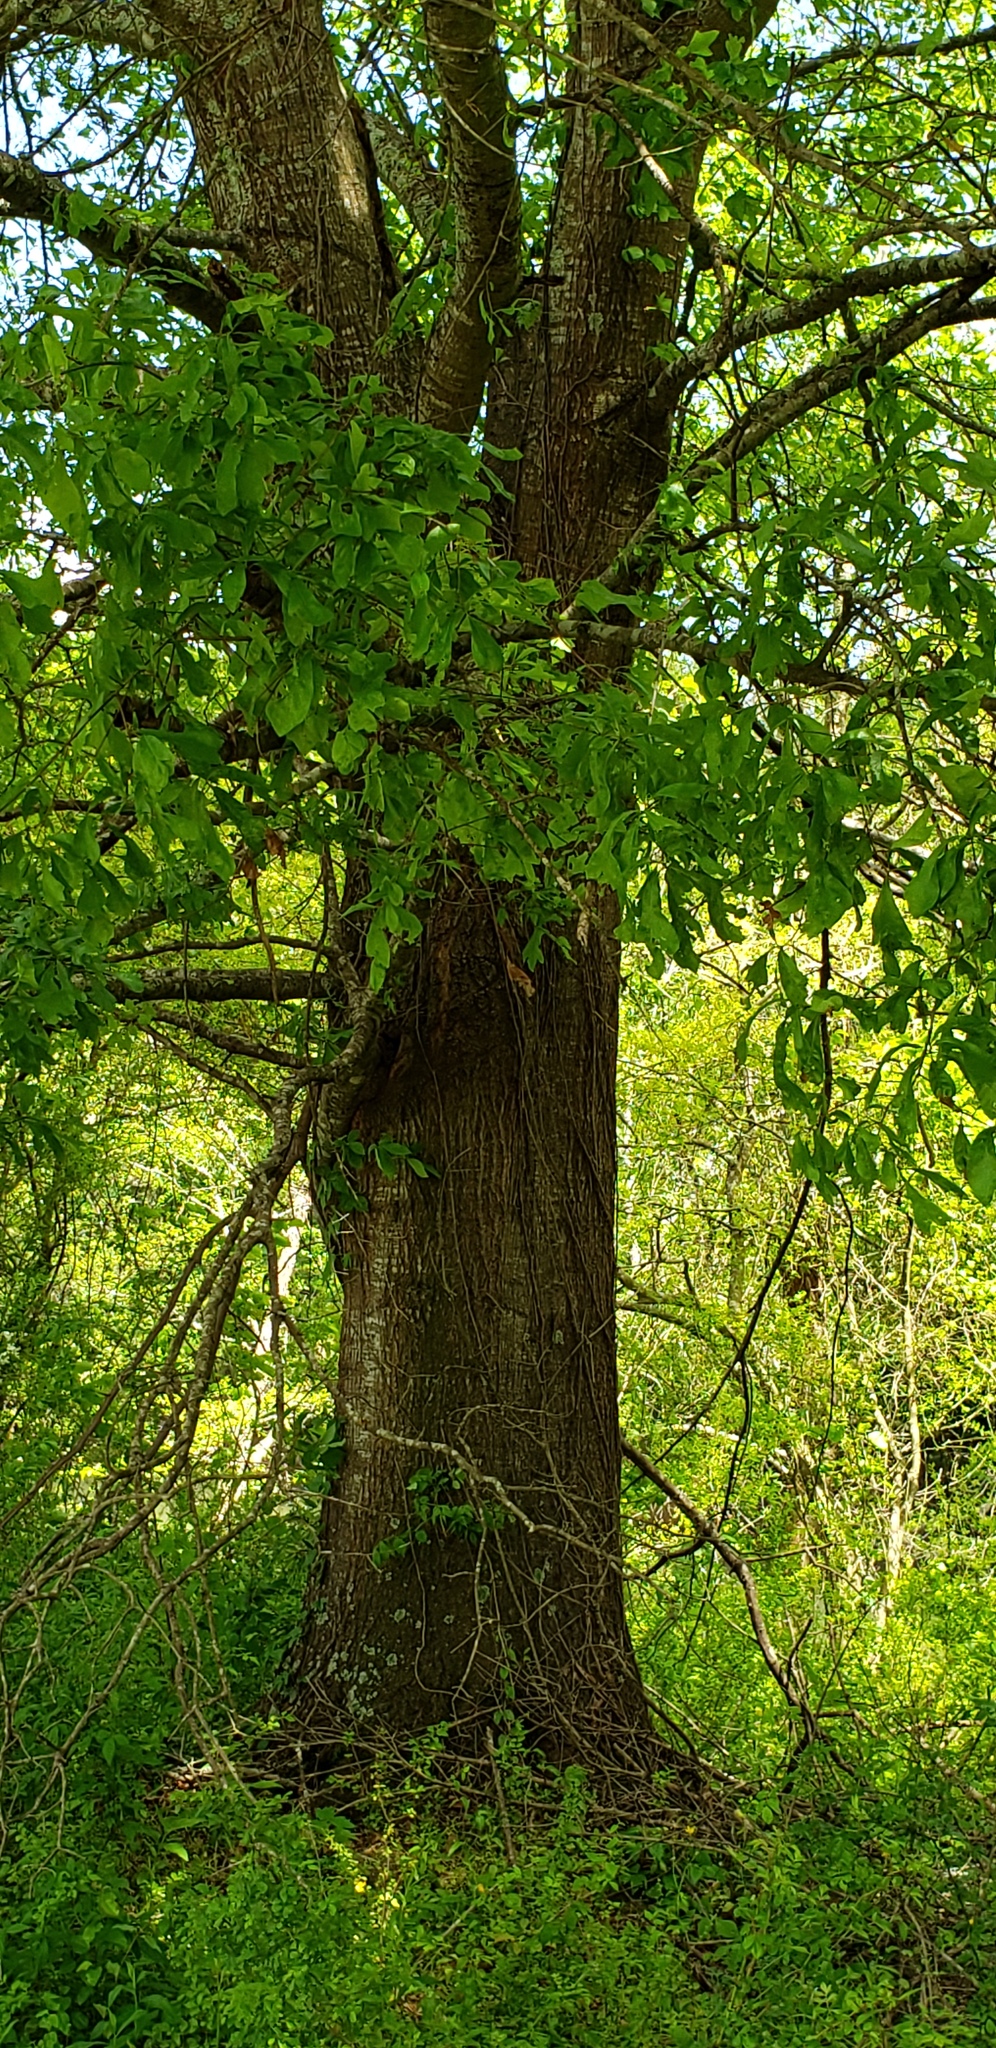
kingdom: Plantae
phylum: Tracheophyta
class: Magnoliopsida
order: Fagales
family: Fagaceae
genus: Quercus
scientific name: Quercus nigra
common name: Water oak
